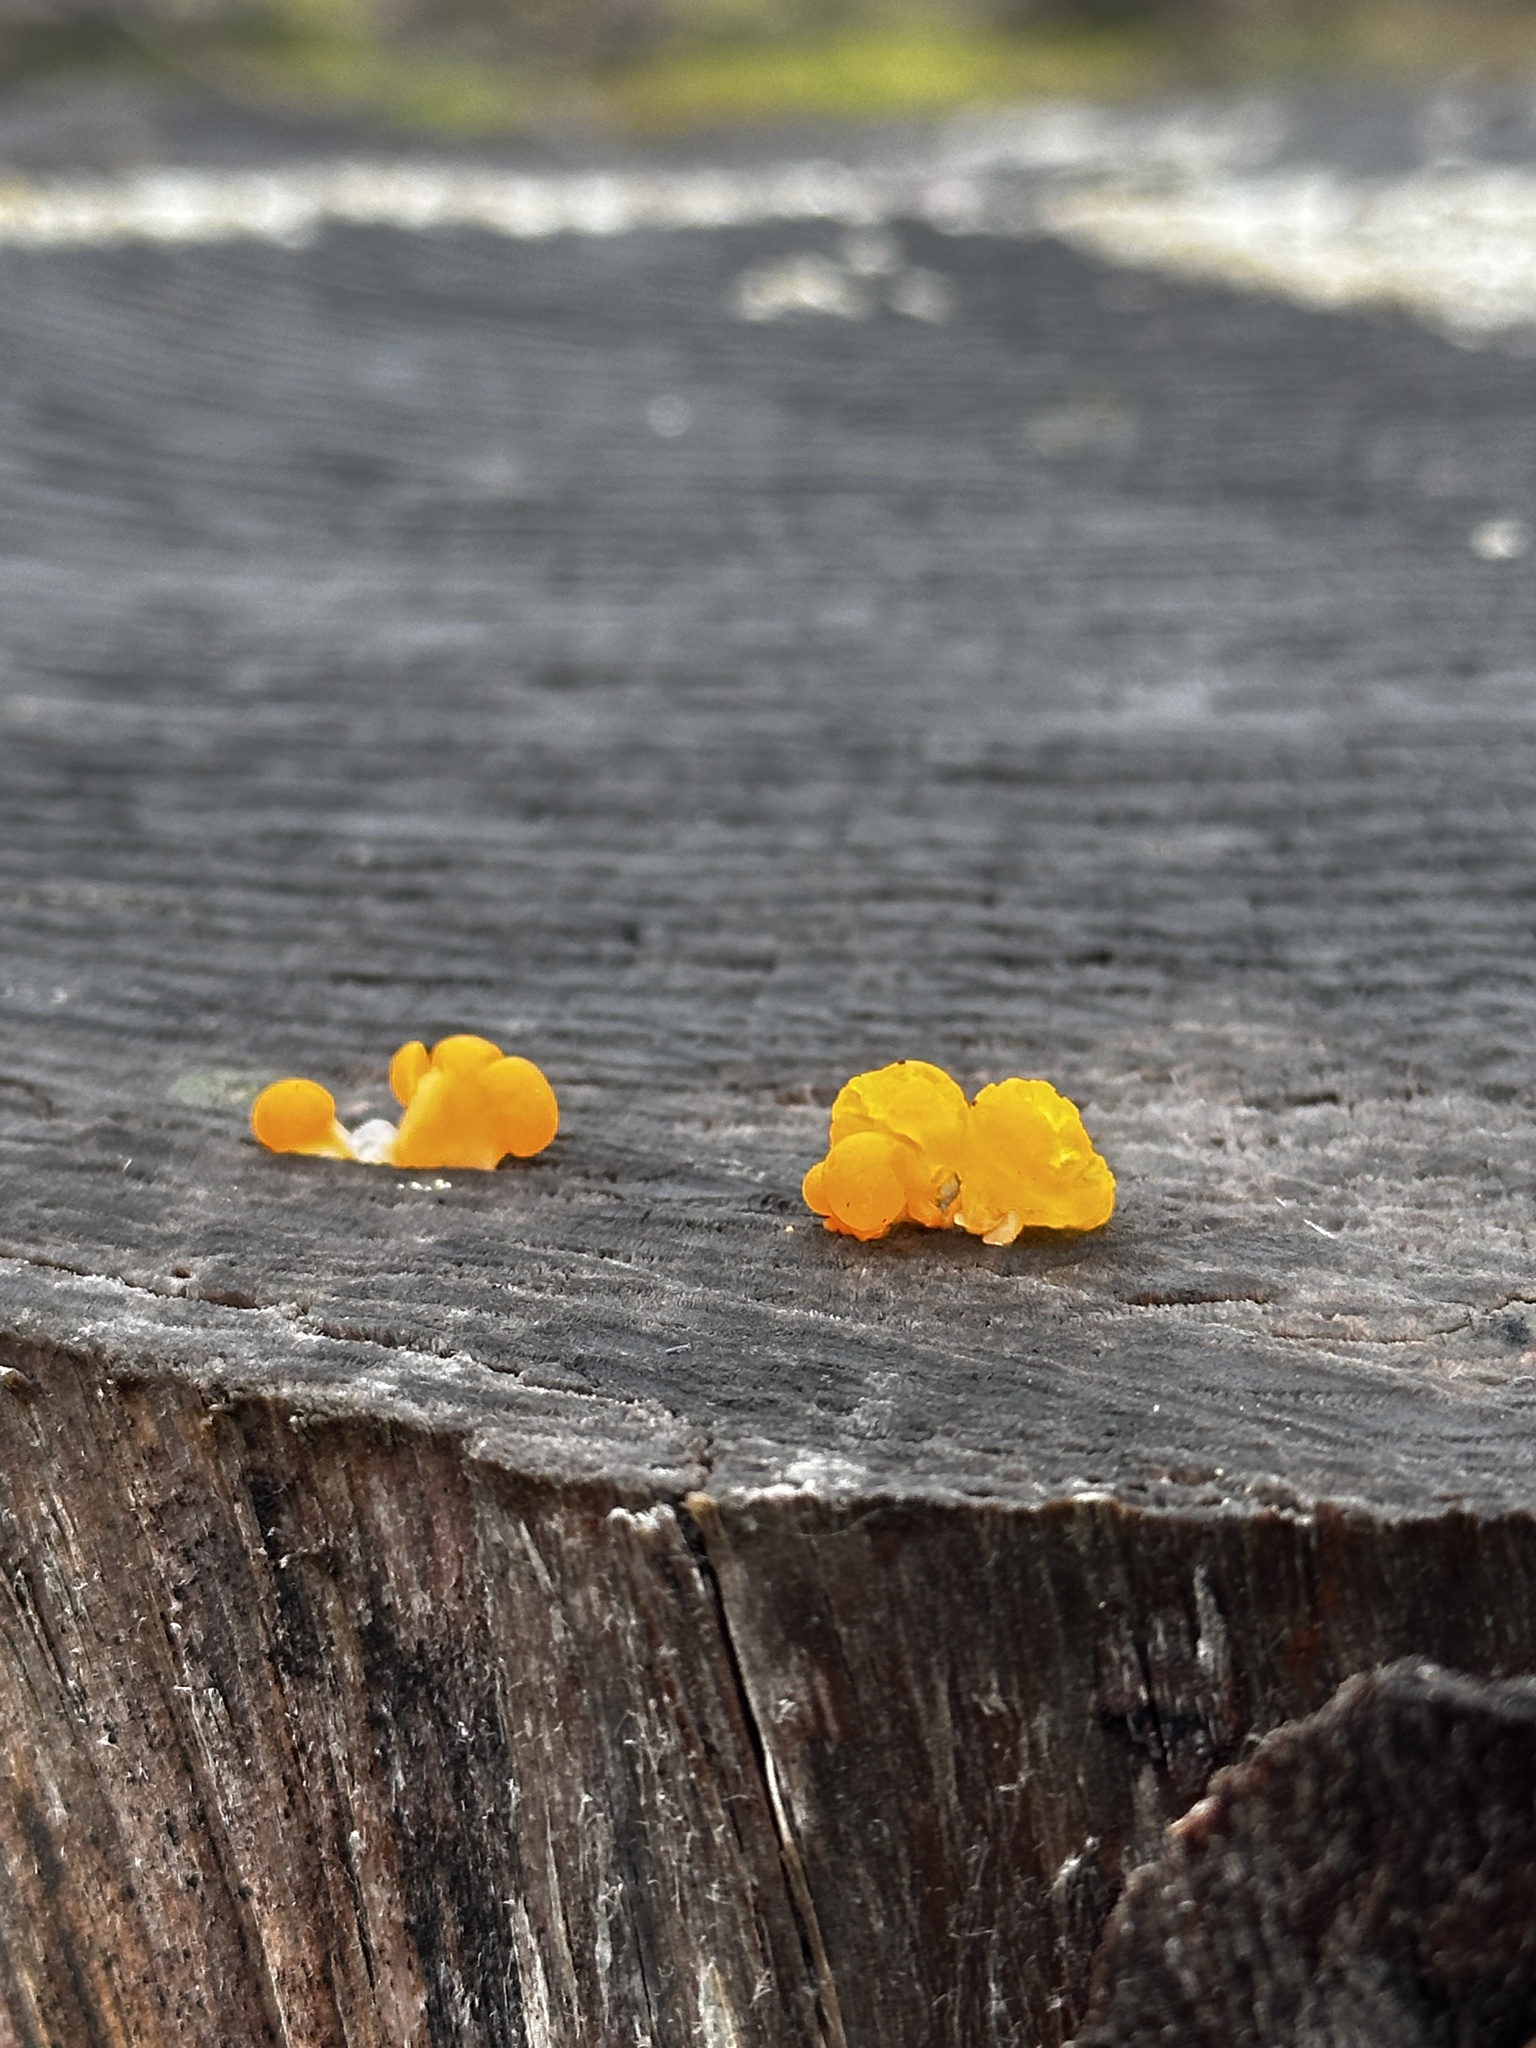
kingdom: Fungi
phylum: Basidiomycota
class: Dacrymycetes
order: Dacrymycetales
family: Dacrymycetaceae
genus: Dacrymyces
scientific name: Dacrymyces chrysospermus
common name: Orange jelly spot
